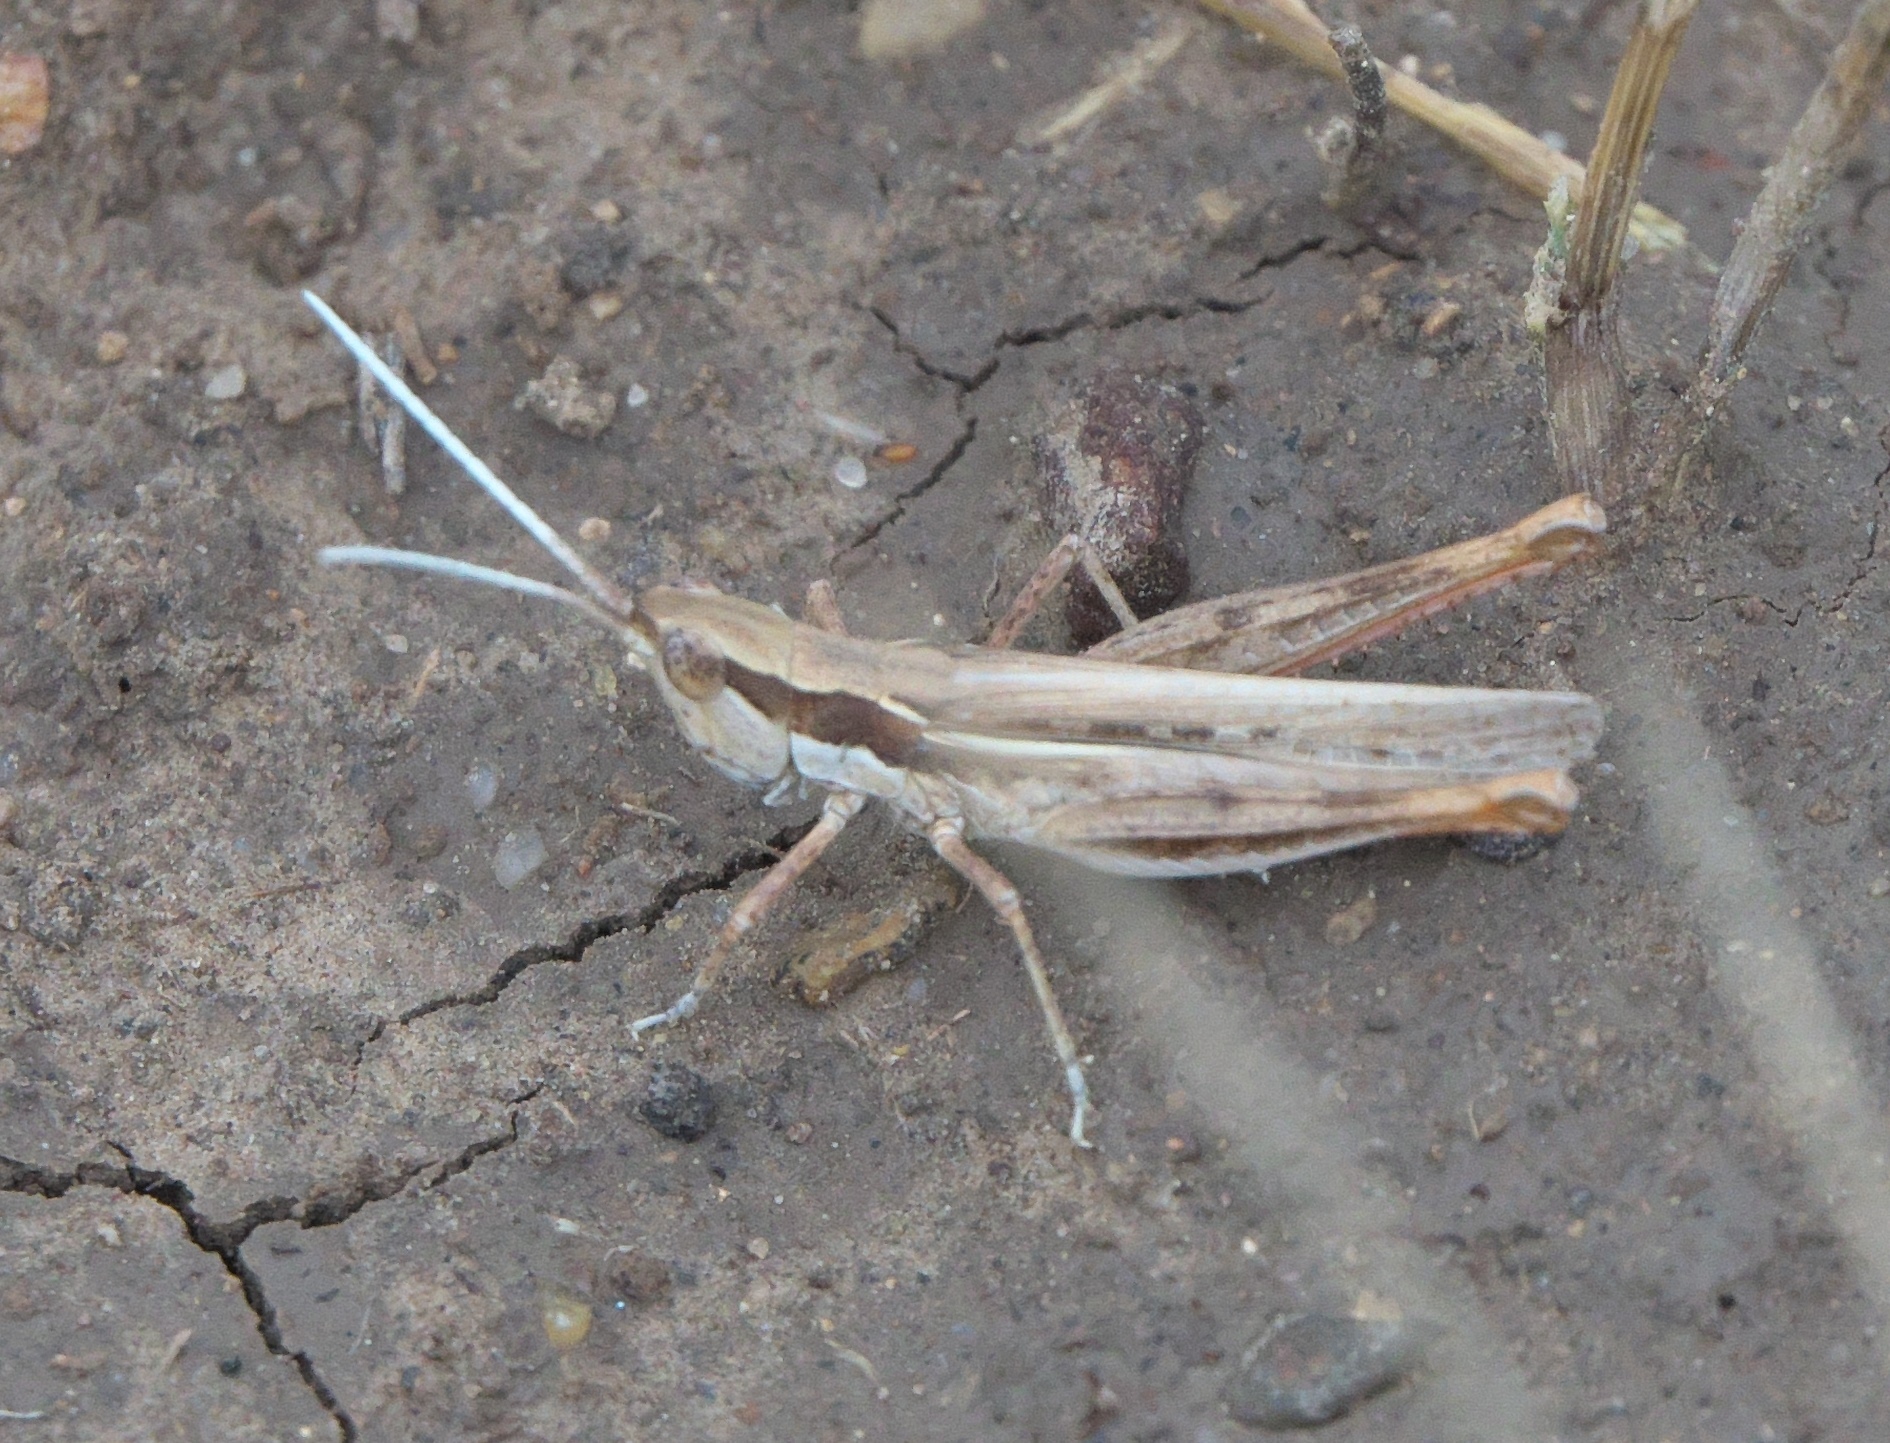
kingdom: Animalia
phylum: Arthropoda
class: Insecta
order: Orthoptera
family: Acrididae
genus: Cordillacris
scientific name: Cordillacris occipitalis
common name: Spotted-winged grasshopper
